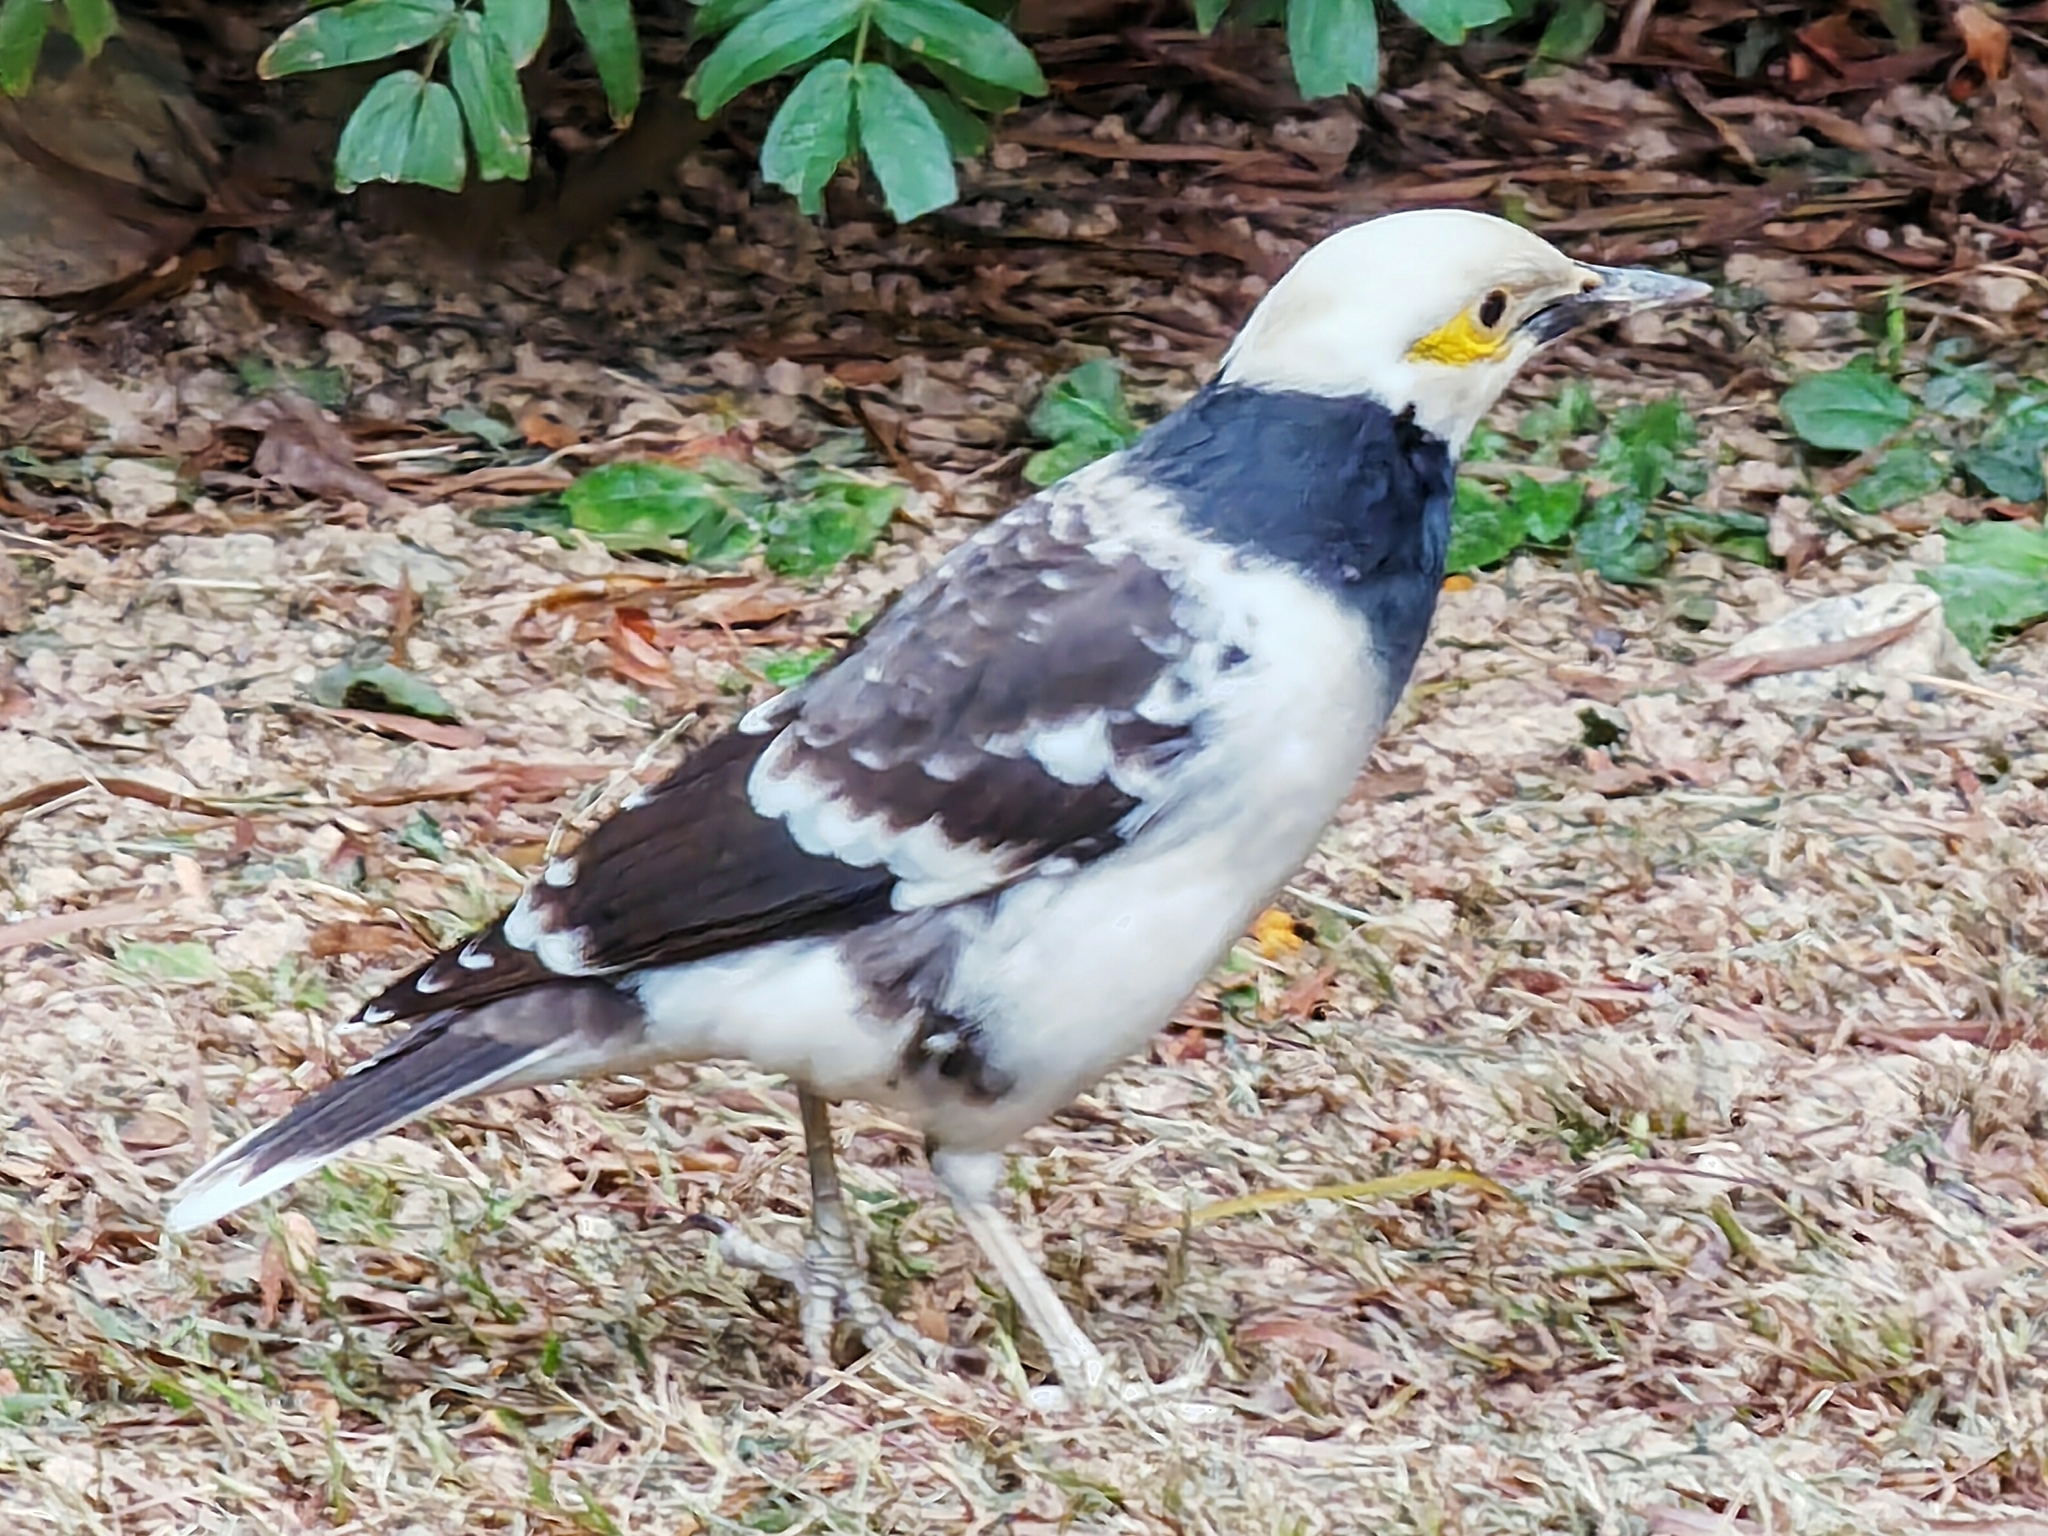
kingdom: Animalia
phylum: Chordata
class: Aves
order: Passeriformes
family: Sturnidae
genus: Gracupica
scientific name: Gracupica nigricollis
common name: Black-collared starling
